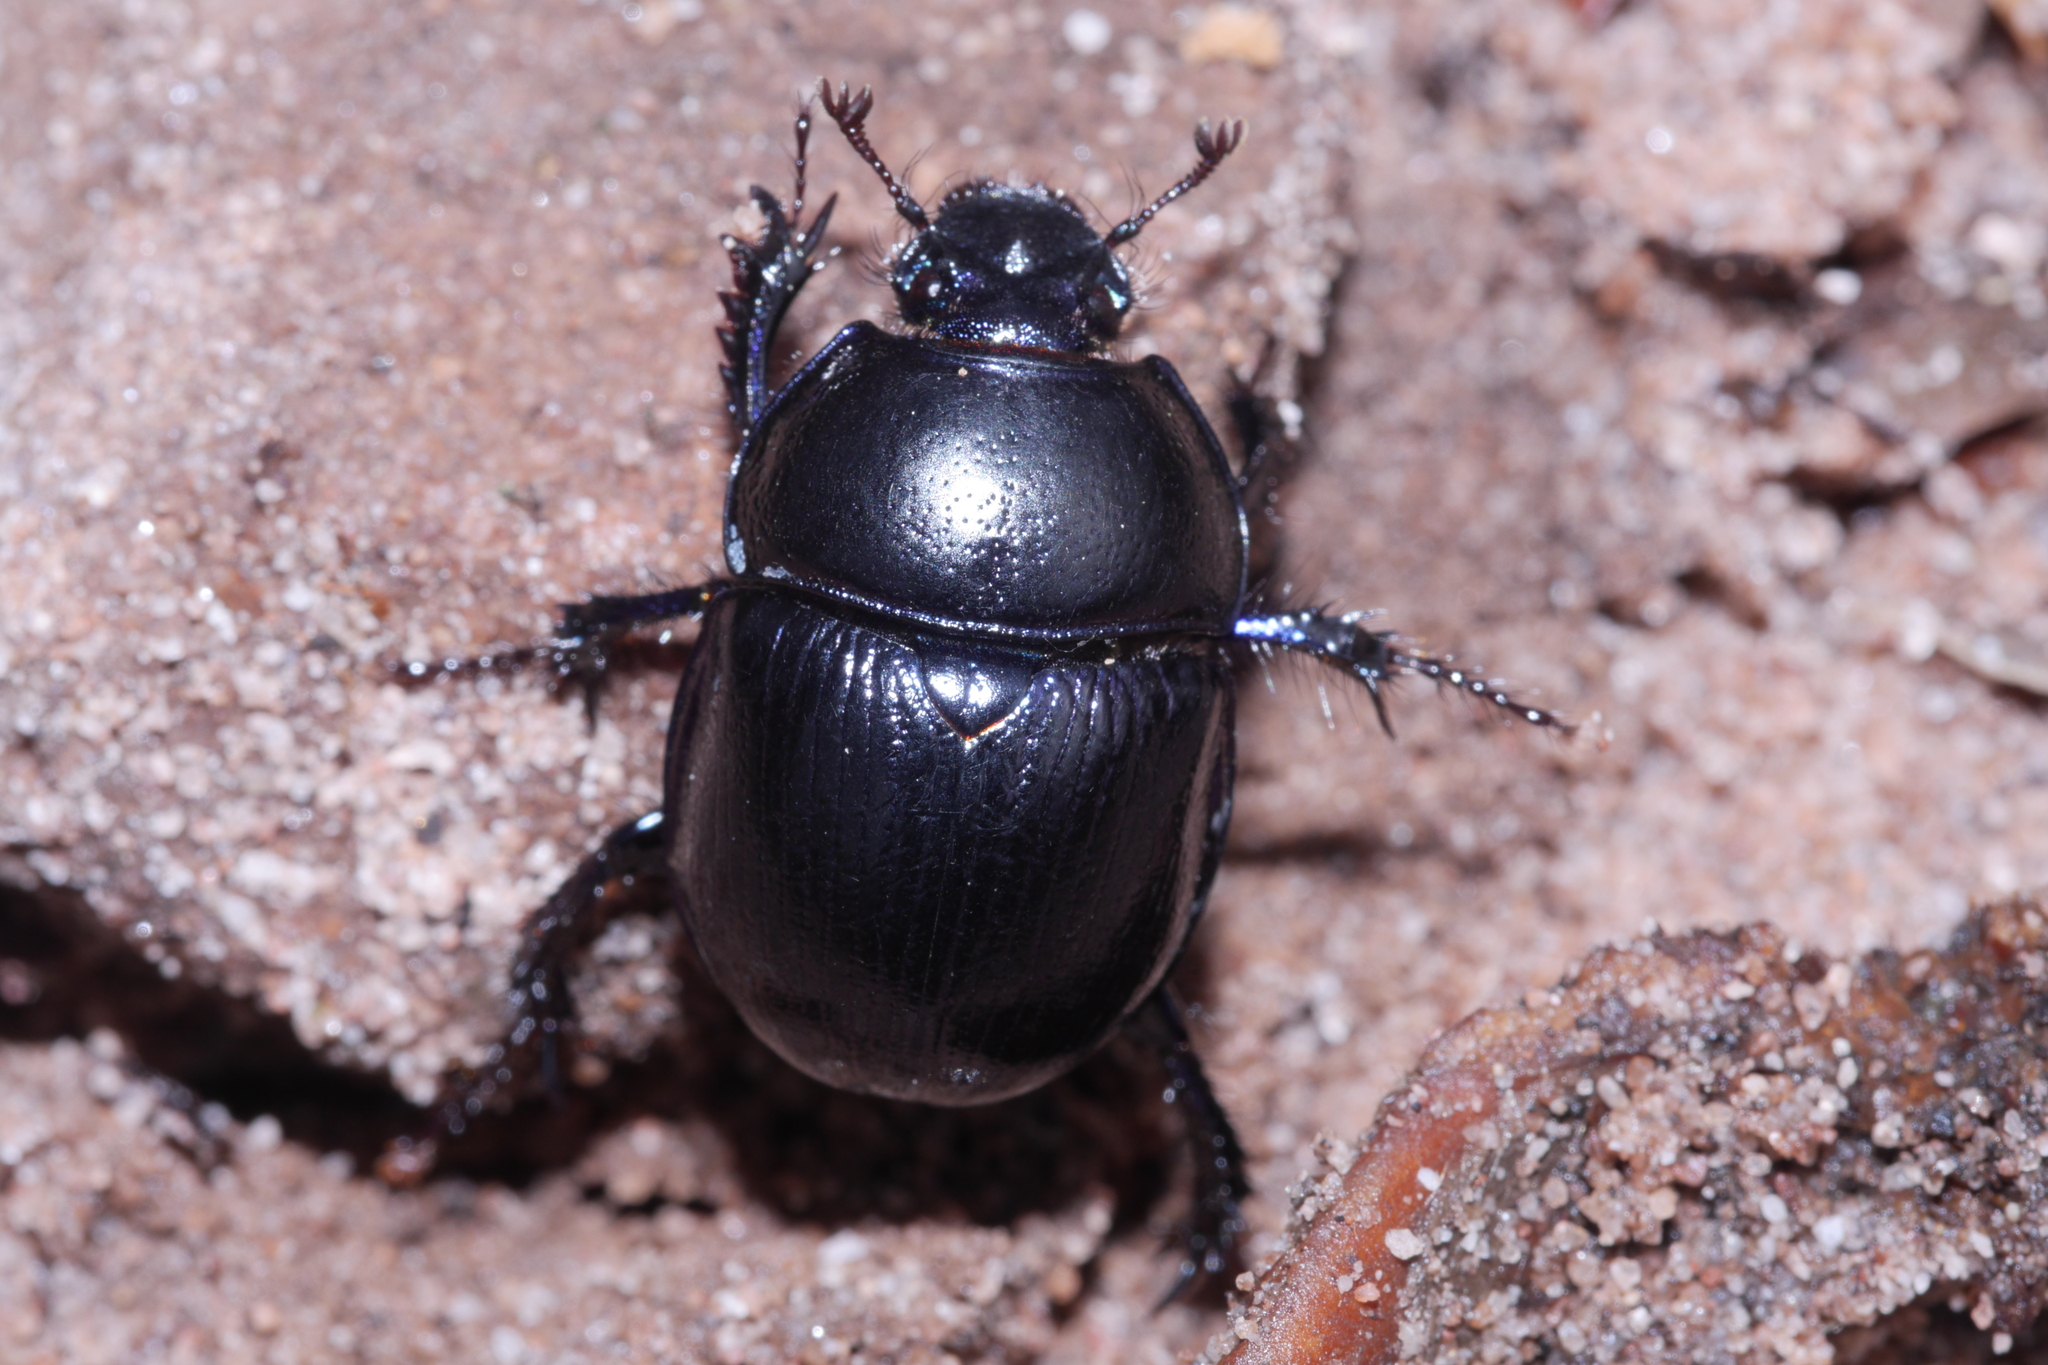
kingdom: Animalia
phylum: Arthropoda
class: Insecta
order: Coleoptera
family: Geotrupidae
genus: Anoplotrupes
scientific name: Anoplotrupes stercorosus
